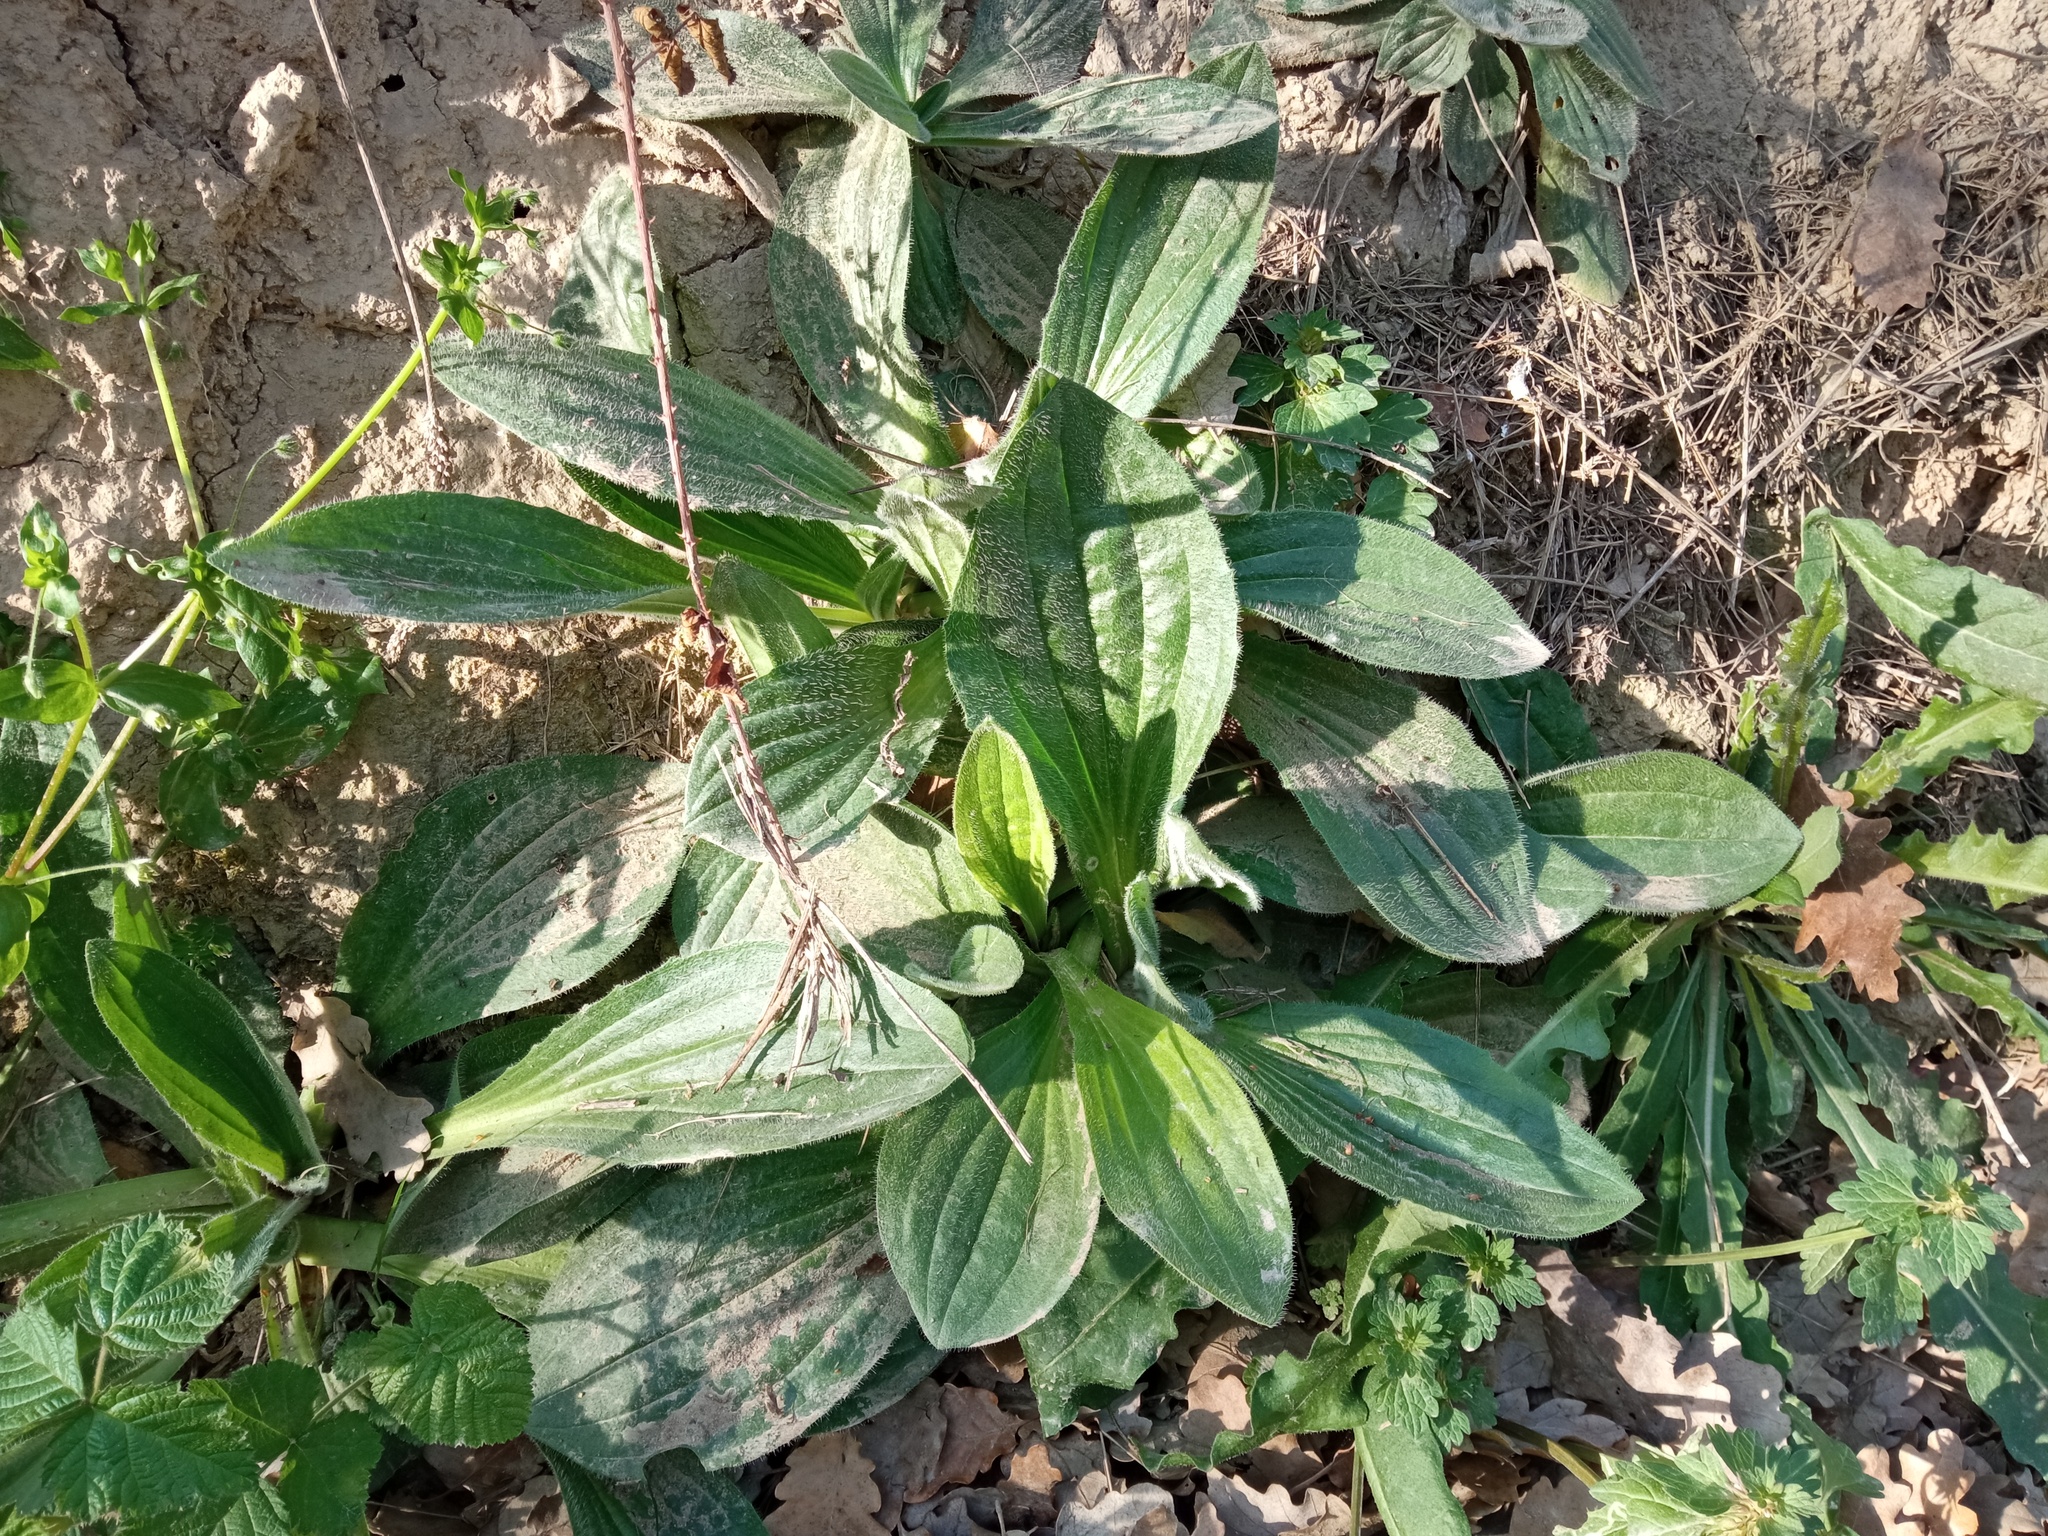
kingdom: Plantae
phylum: Tracheophyta
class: Magnoliopsida
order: Lamiales
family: Plantaginaceae
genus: Plantago
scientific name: Plantago media
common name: Hoary plantain
